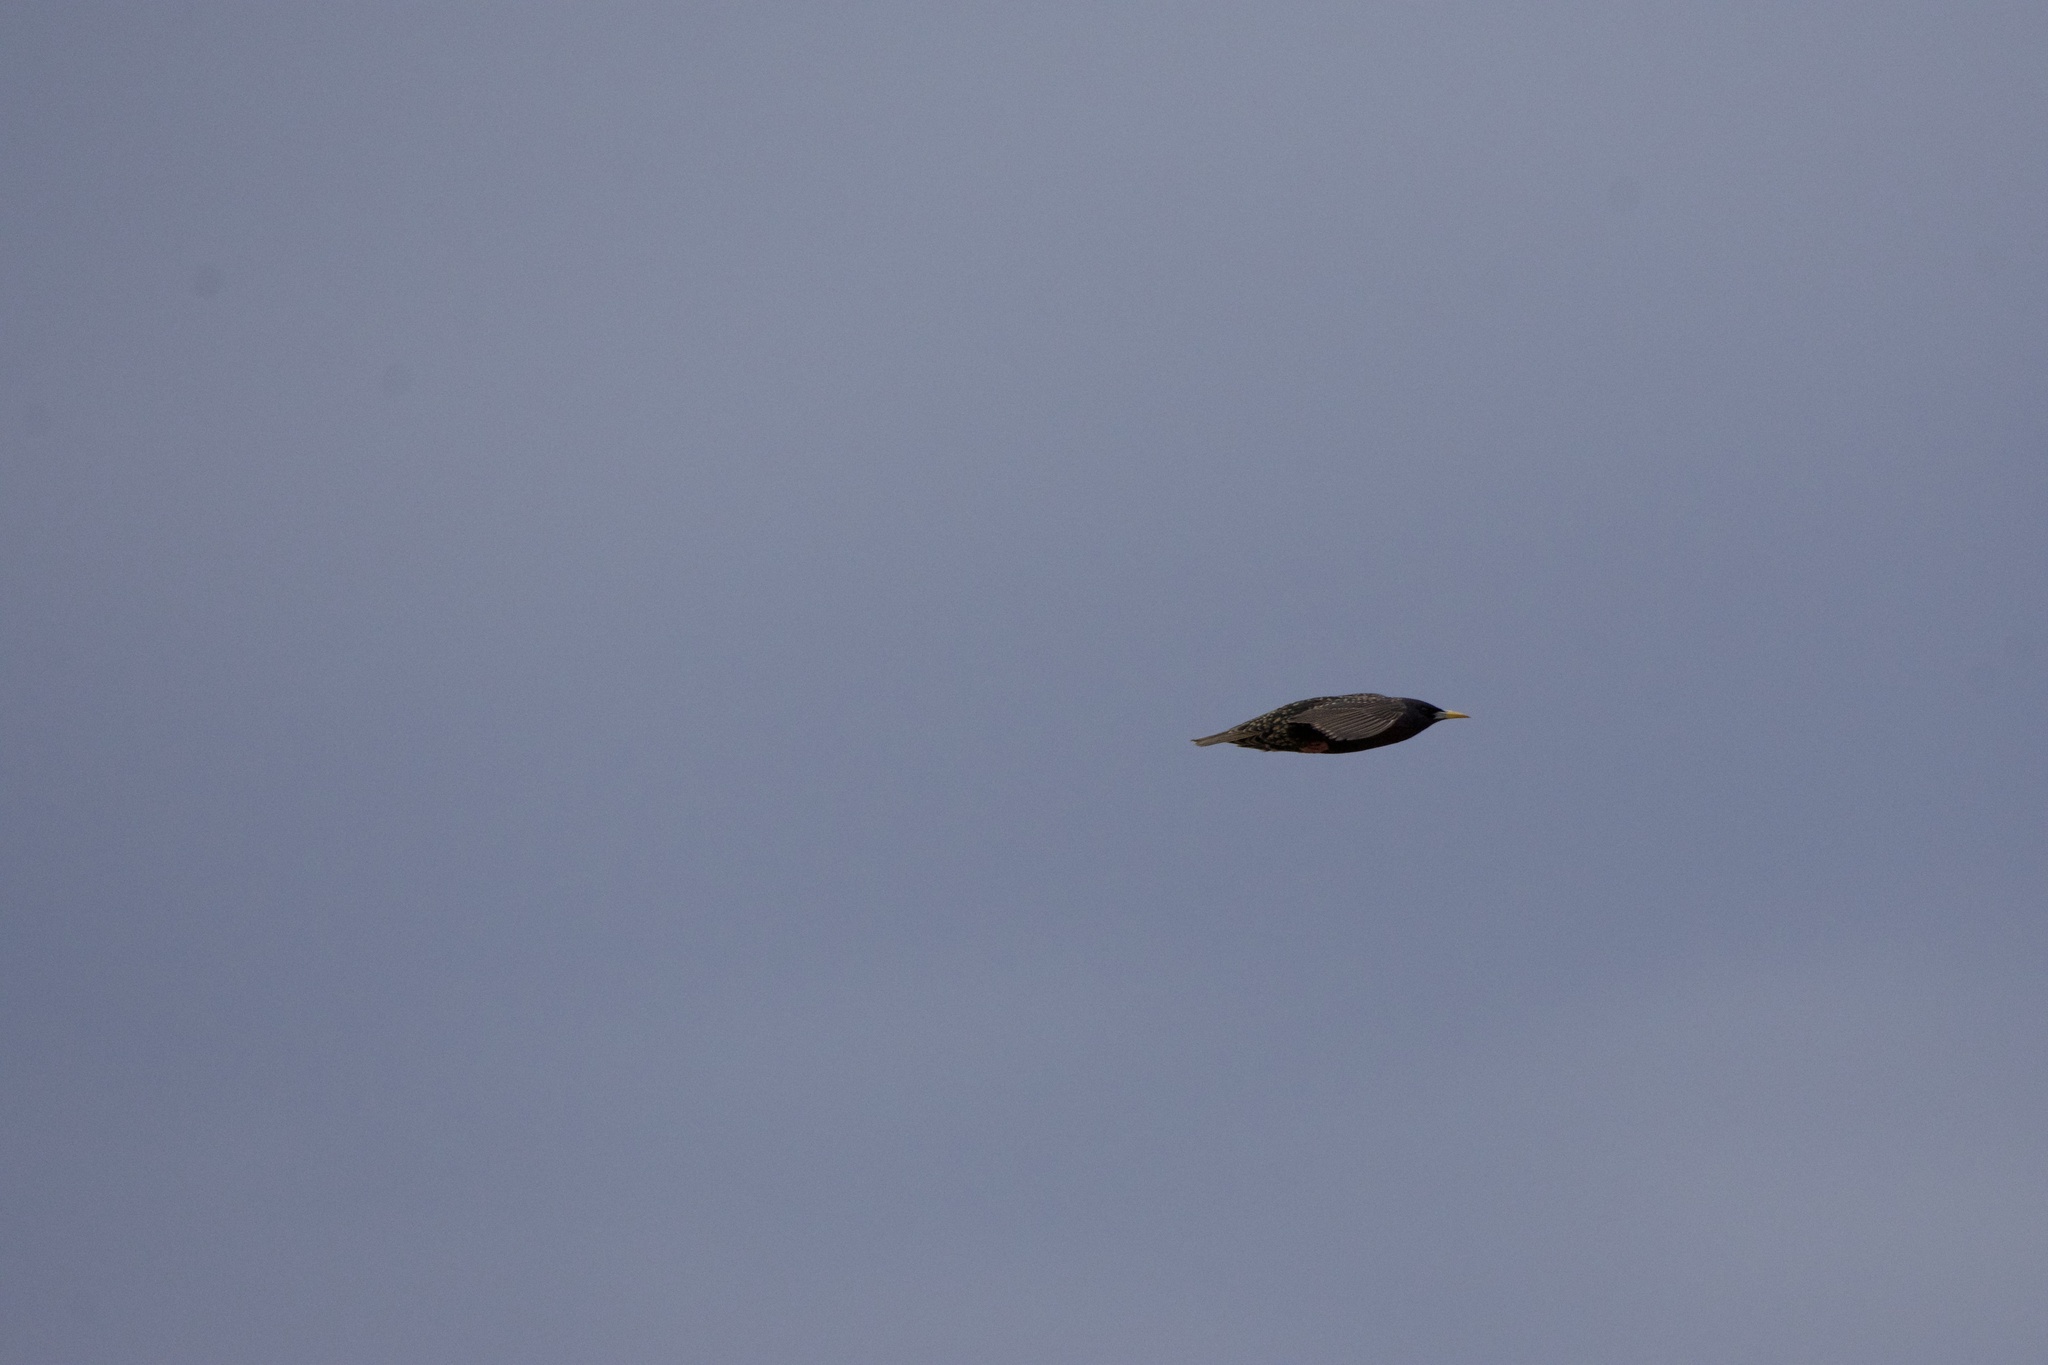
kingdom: Animalia
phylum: Chordata
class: Aves
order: Passeriformes
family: Sturnidae
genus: Sturnus
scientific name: Sturnus vulgaris
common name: Common starling
